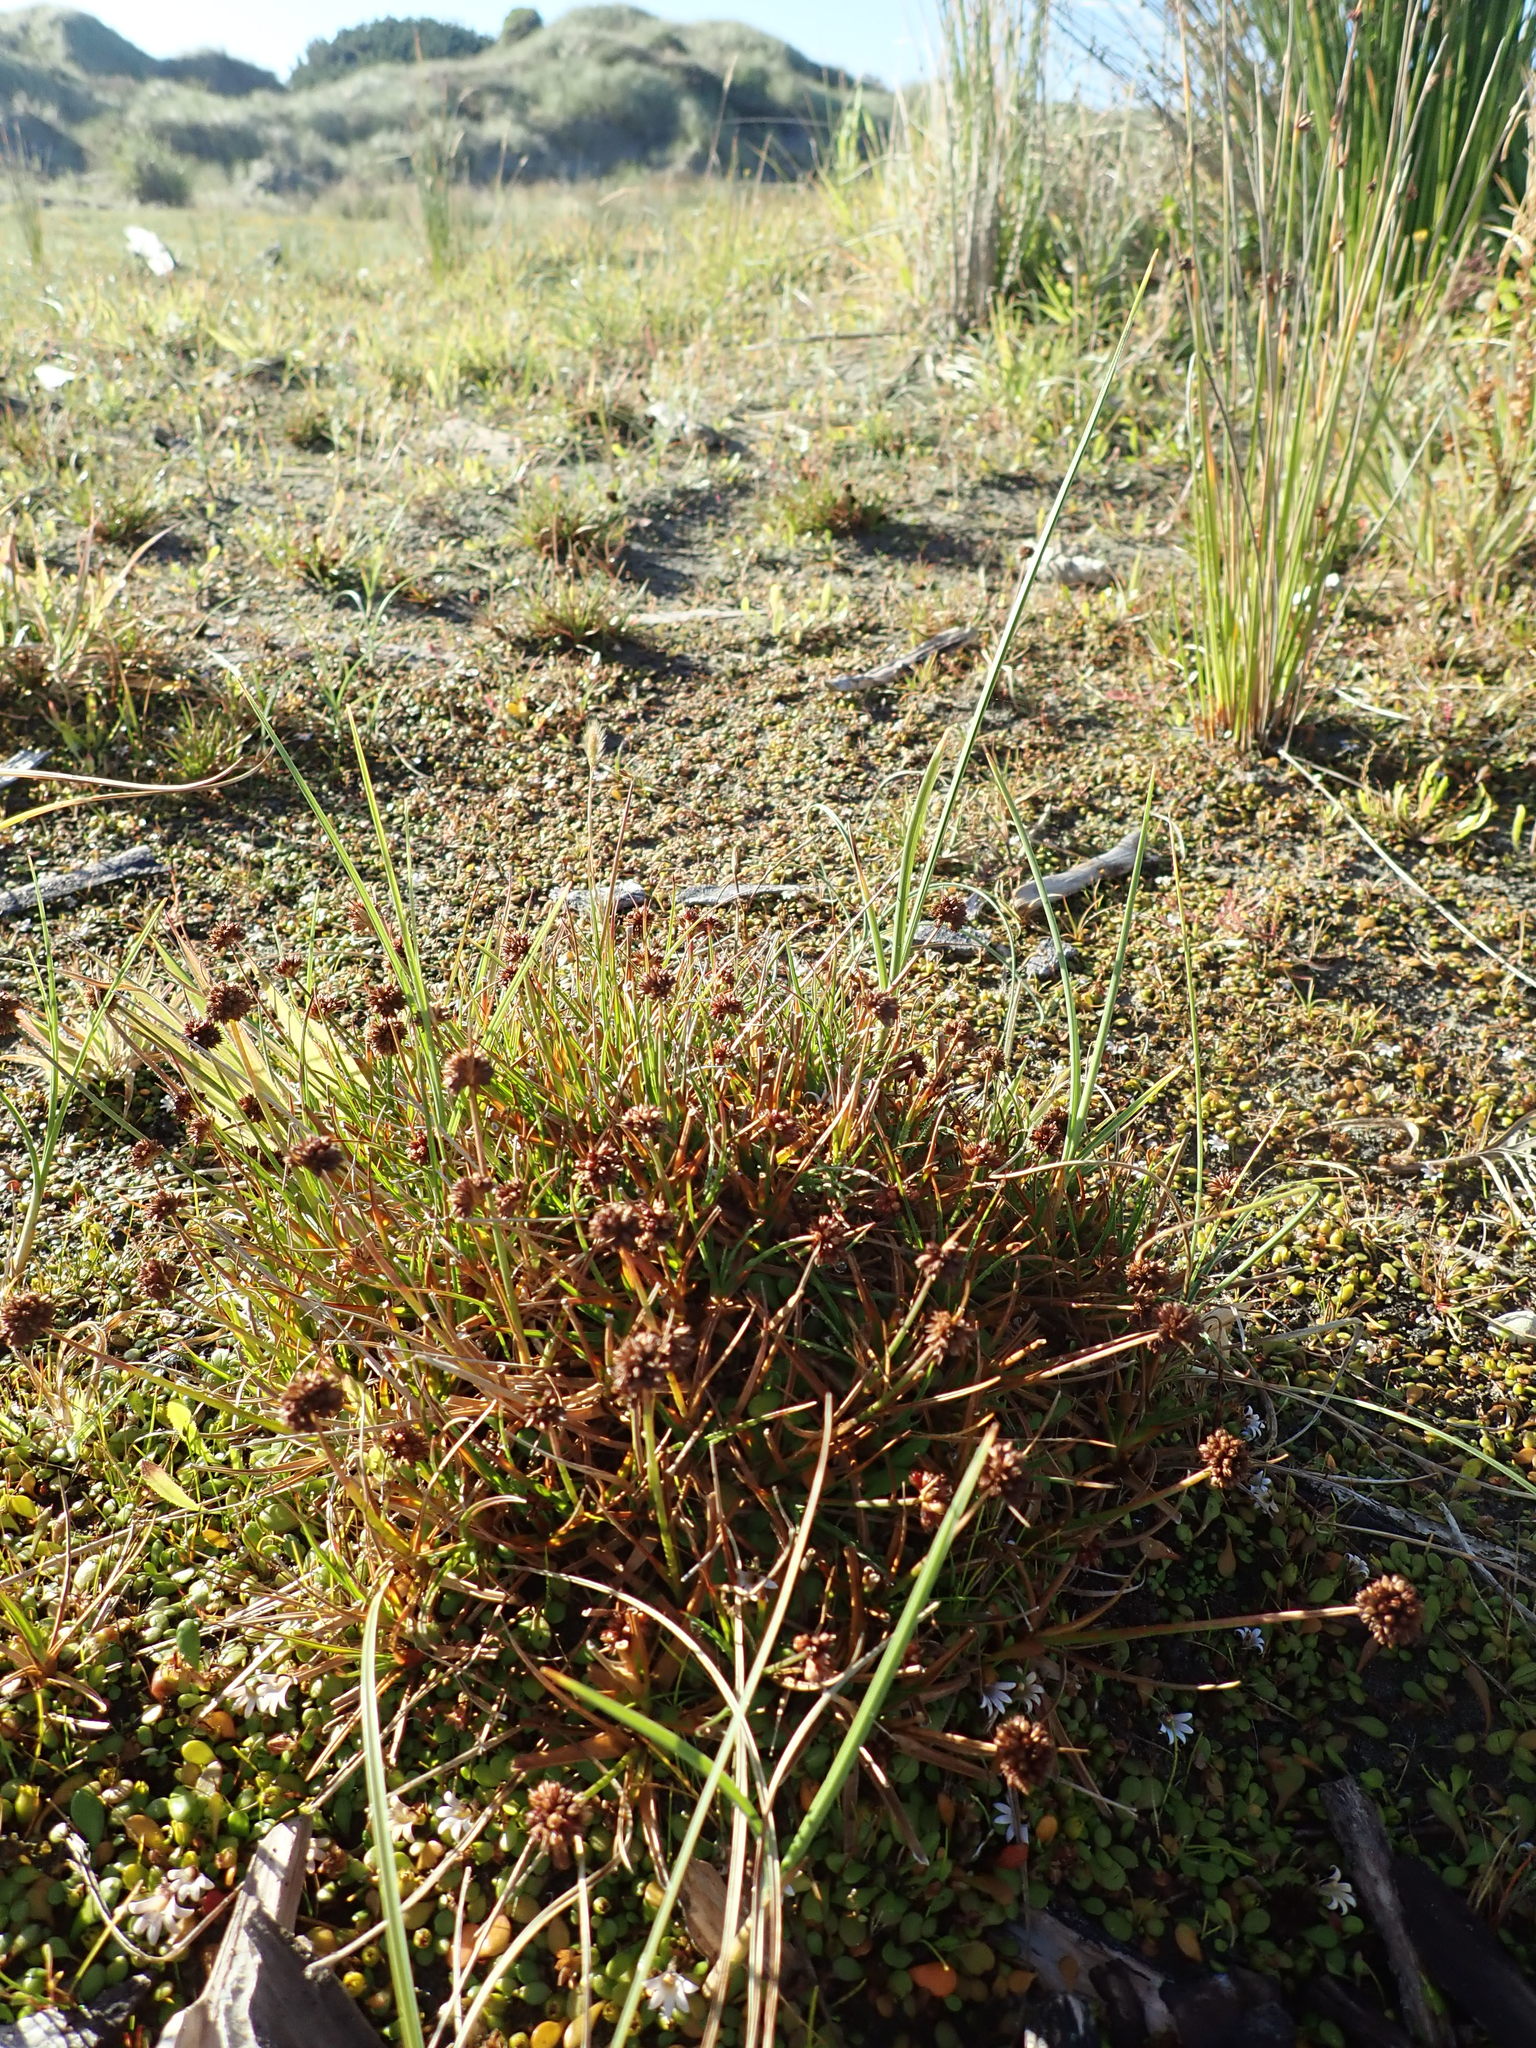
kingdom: Plantae
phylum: Tracheophyta
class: Liliopsida
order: Poales
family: Juncaceae
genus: Juncus
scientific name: Juncus caespiticius
